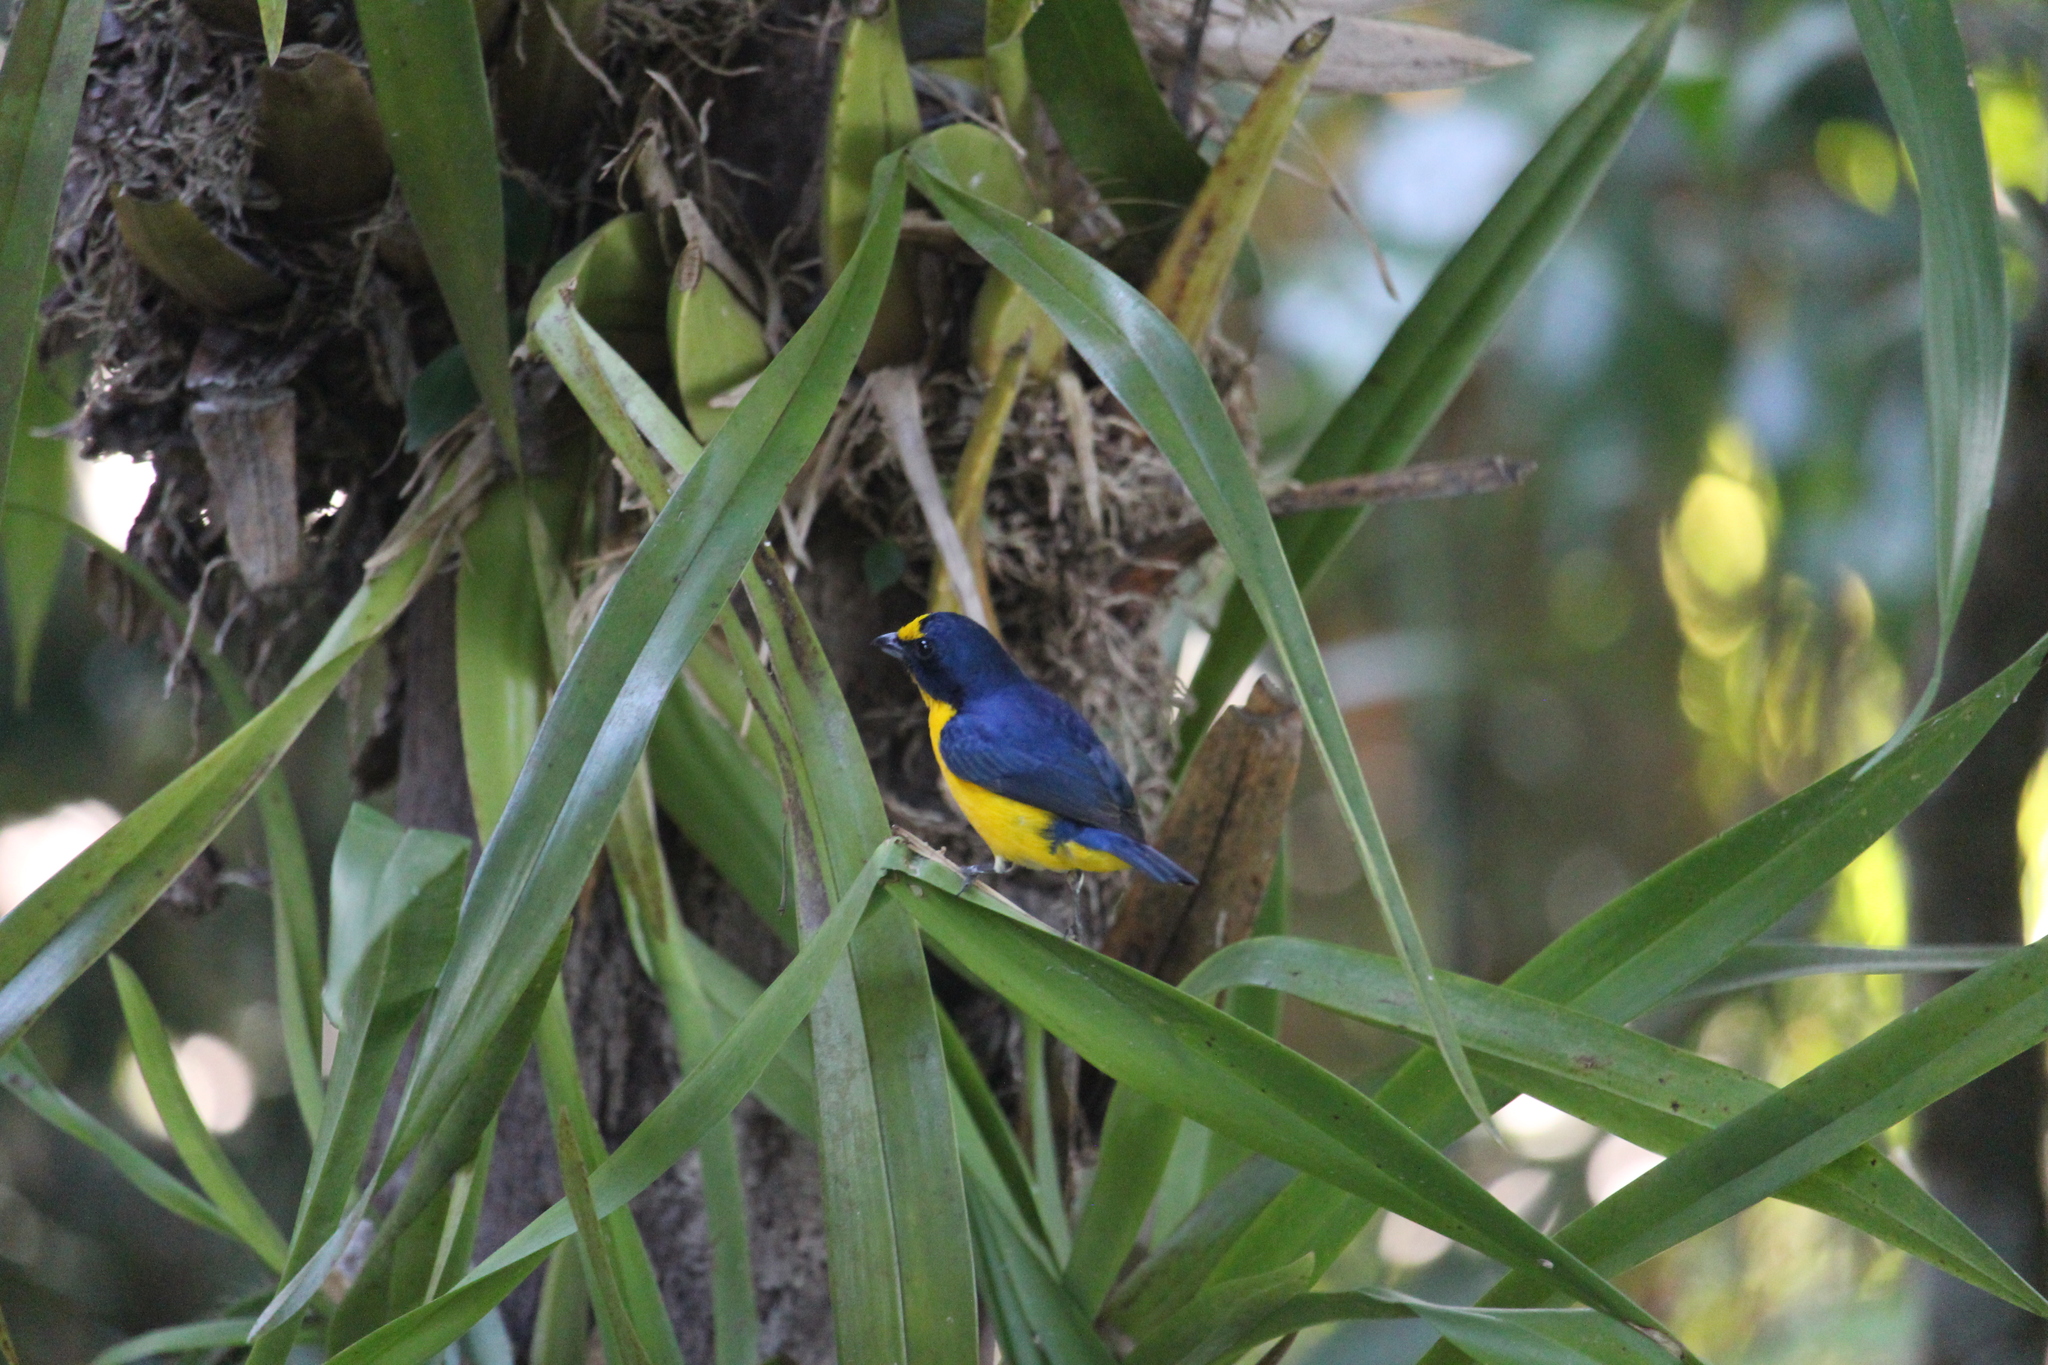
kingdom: Animalia
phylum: Chordata
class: Aves
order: Passeriformes
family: Fringillidae
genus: Euphonia
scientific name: Euphonia hirundinacea
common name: Yellow-throated euphonia
